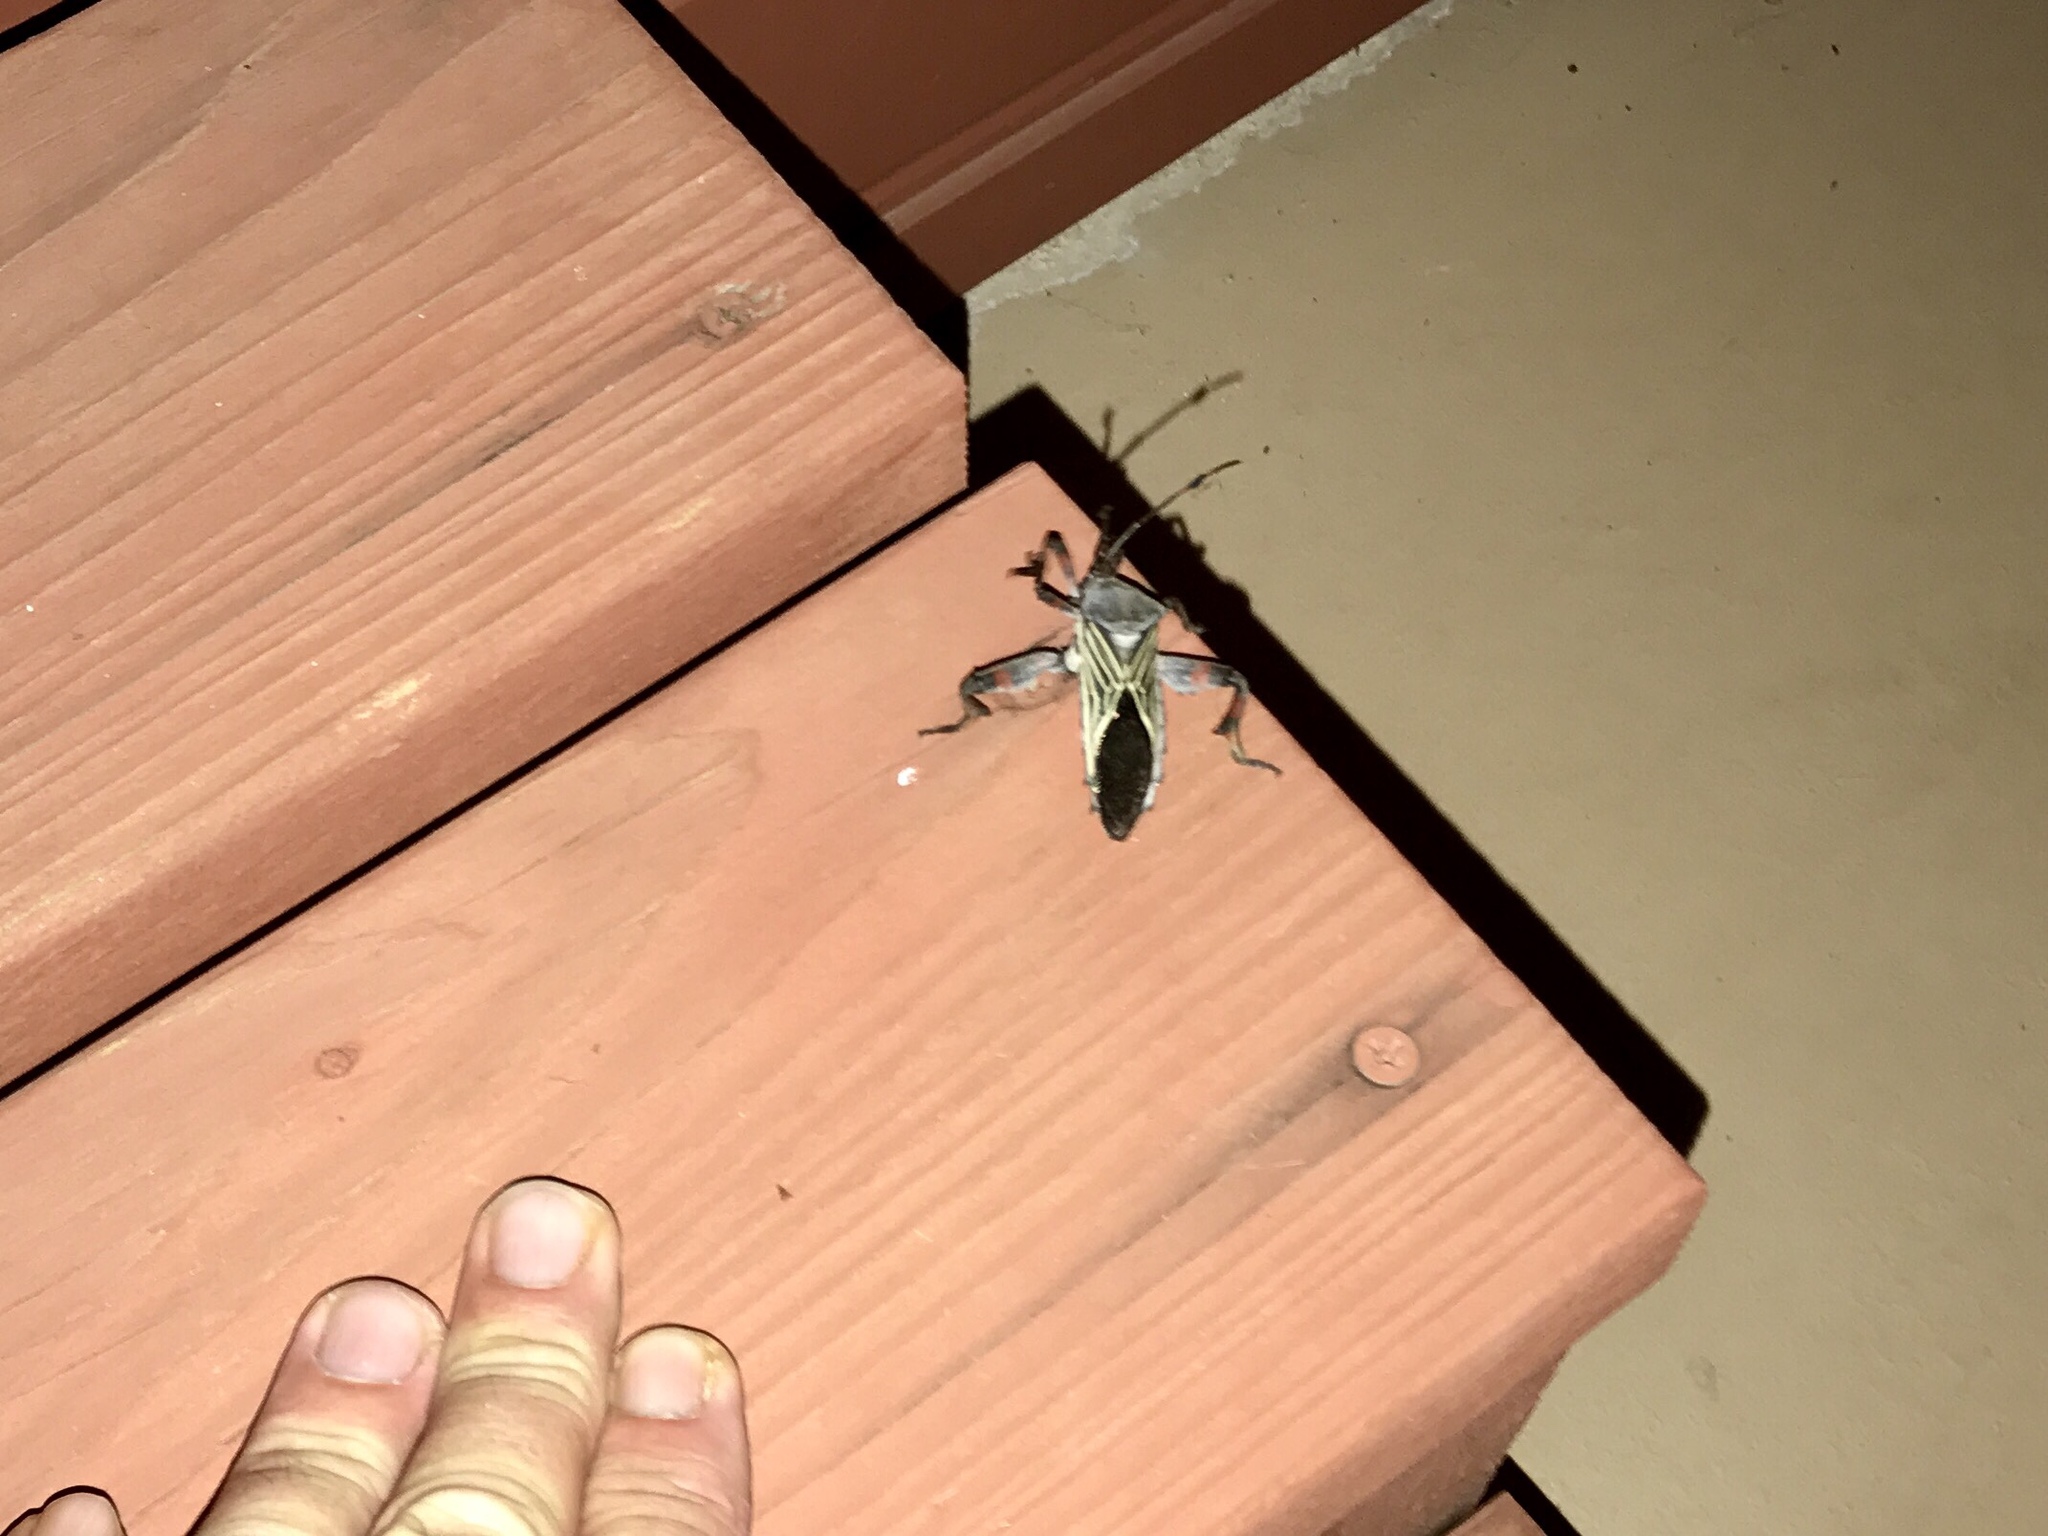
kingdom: Animalia
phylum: Arthropoda
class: Insecta
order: Hemiptera
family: Coreidae
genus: Thasus
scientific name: Thasus neocalifornicus
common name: Giant mesquite bug
